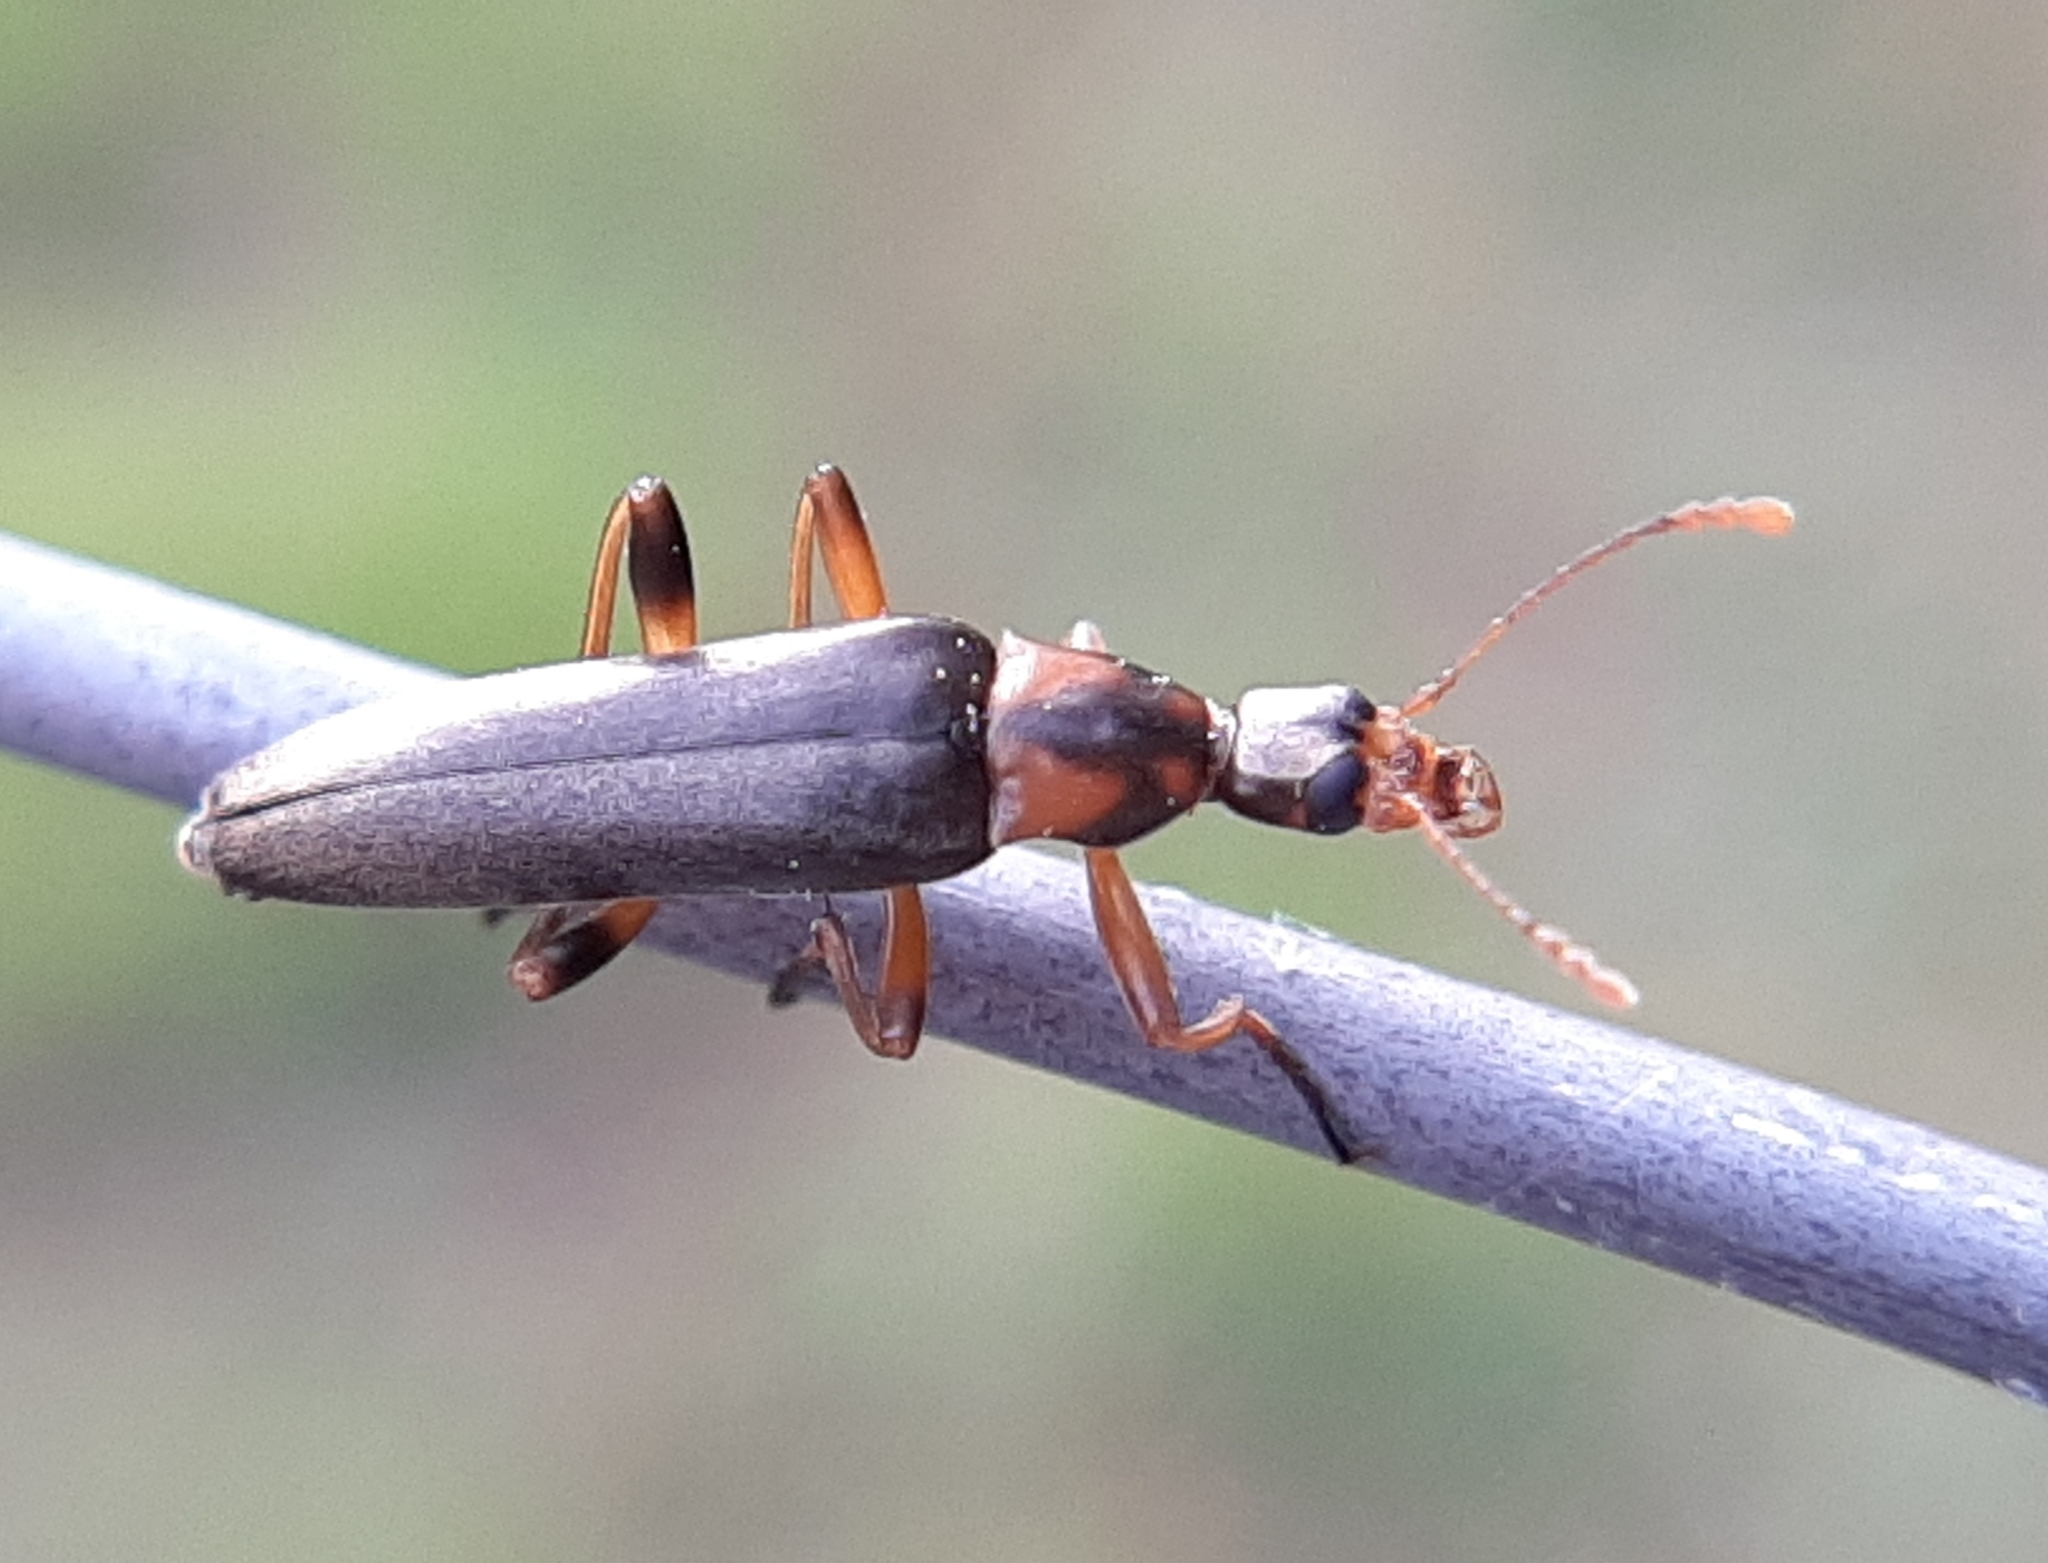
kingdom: Animalia
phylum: Arthropoda
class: Insecta
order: Coleoptera
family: Stenotrachelidae
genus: Cephaloon
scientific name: Cephaloon lepturides
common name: False leptura beetle
